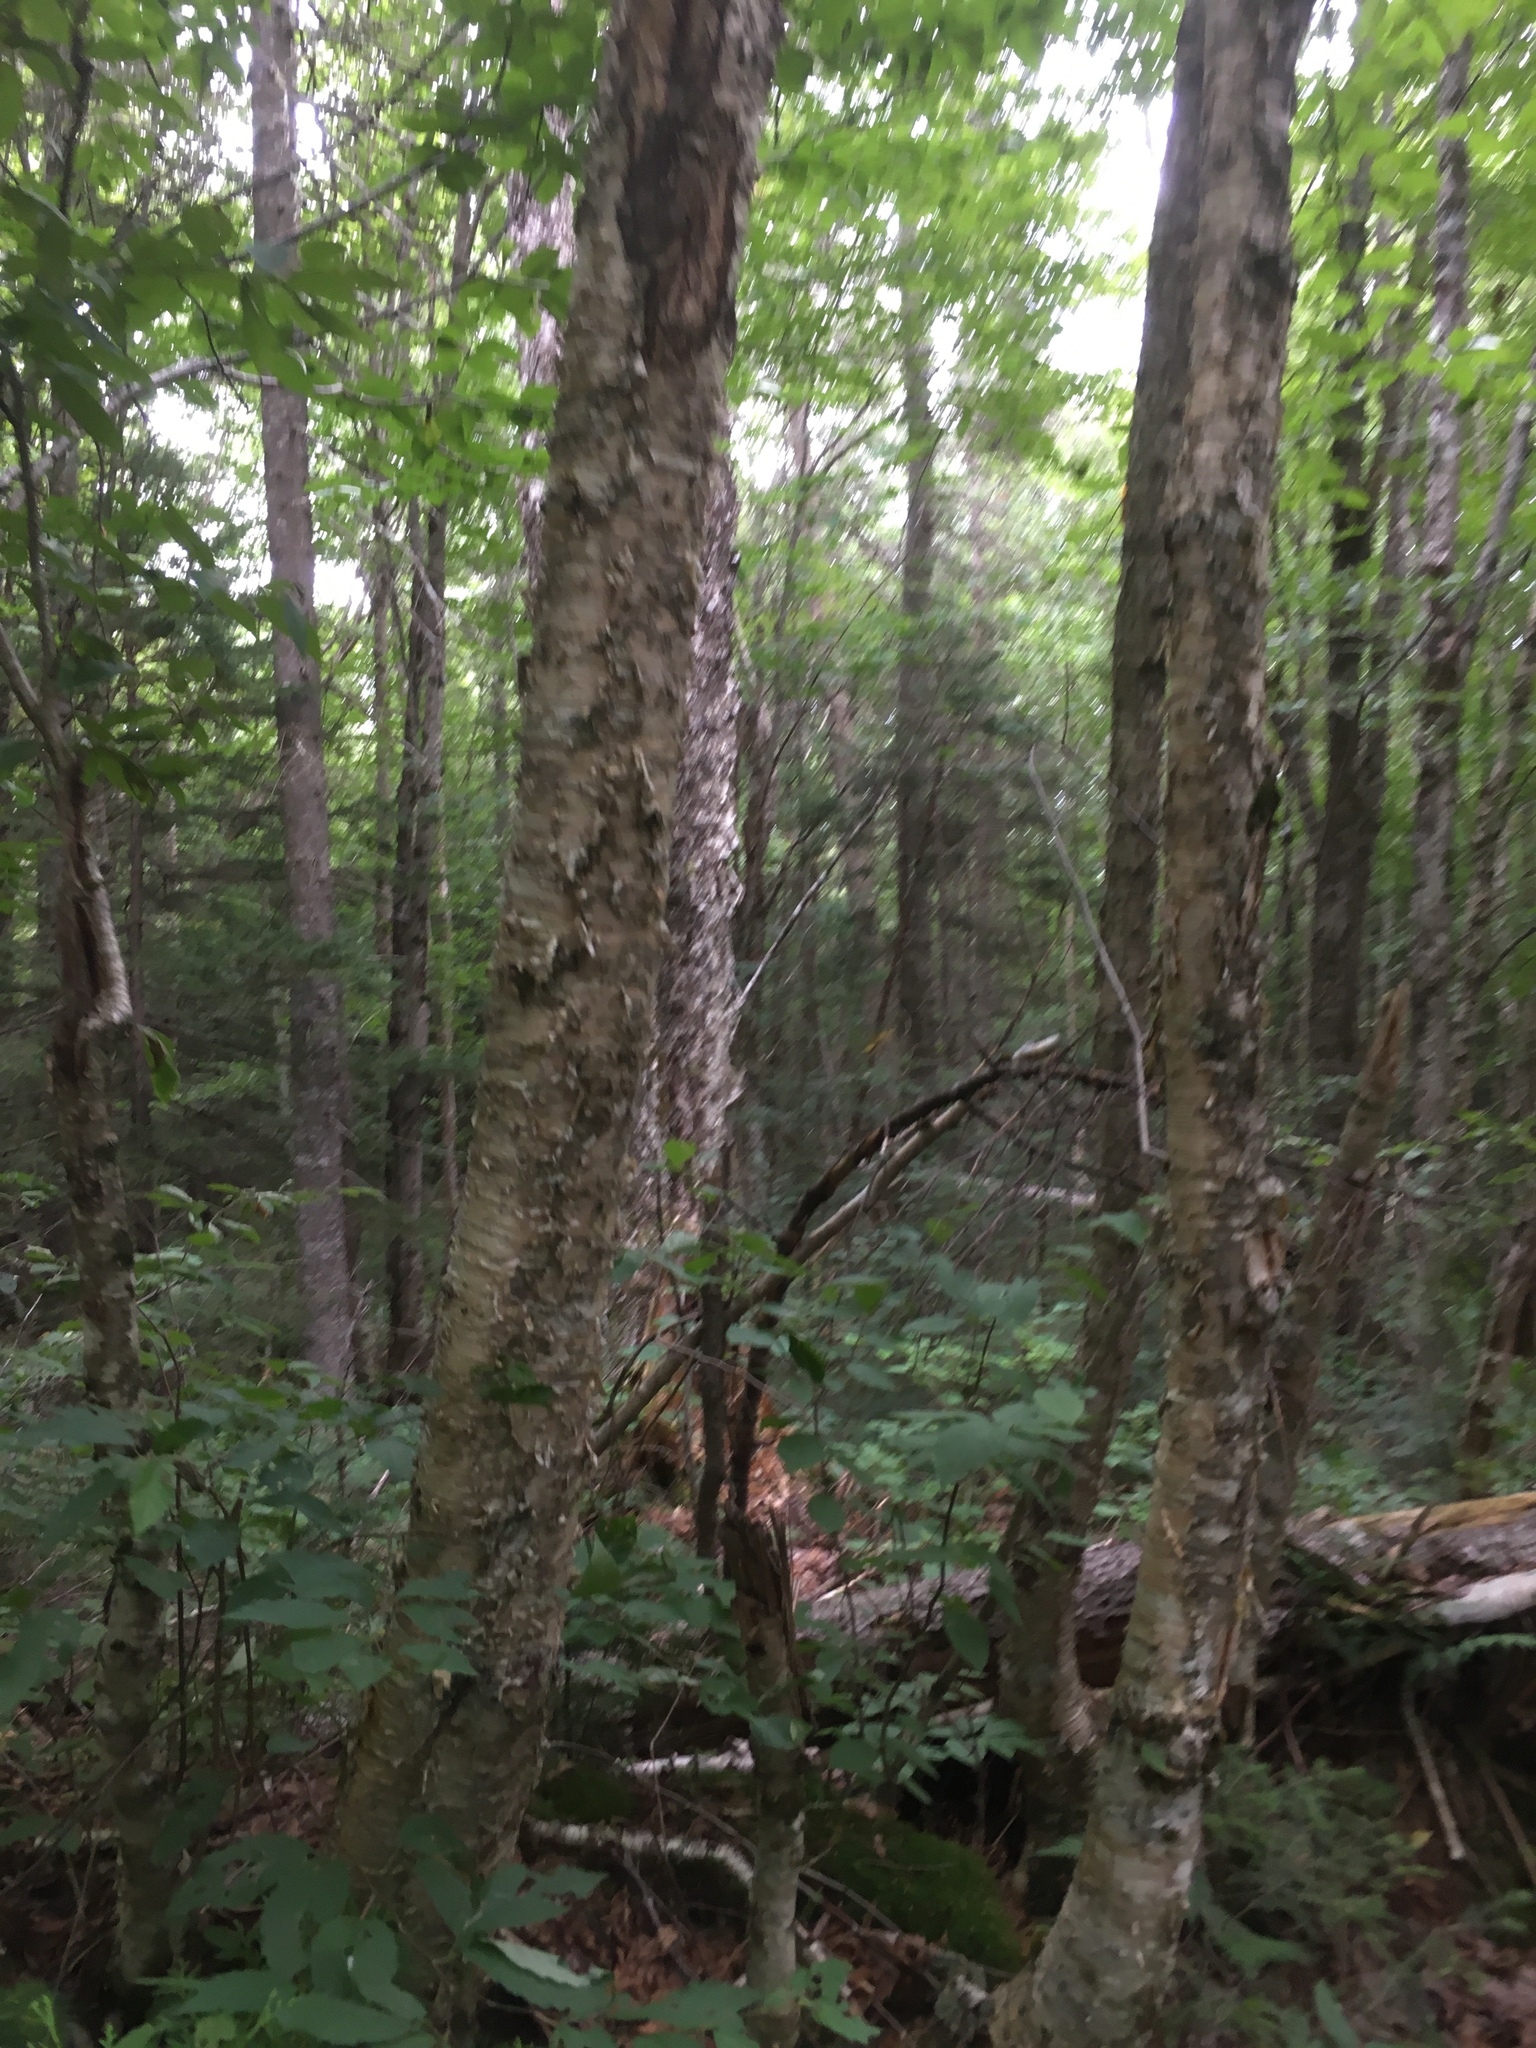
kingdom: Plantae
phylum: Tracheophyta
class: Magnoliopsida
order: Fagales
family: Betulaceae
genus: Betula
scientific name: Betula alleghaniensis
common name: Yellow birch
